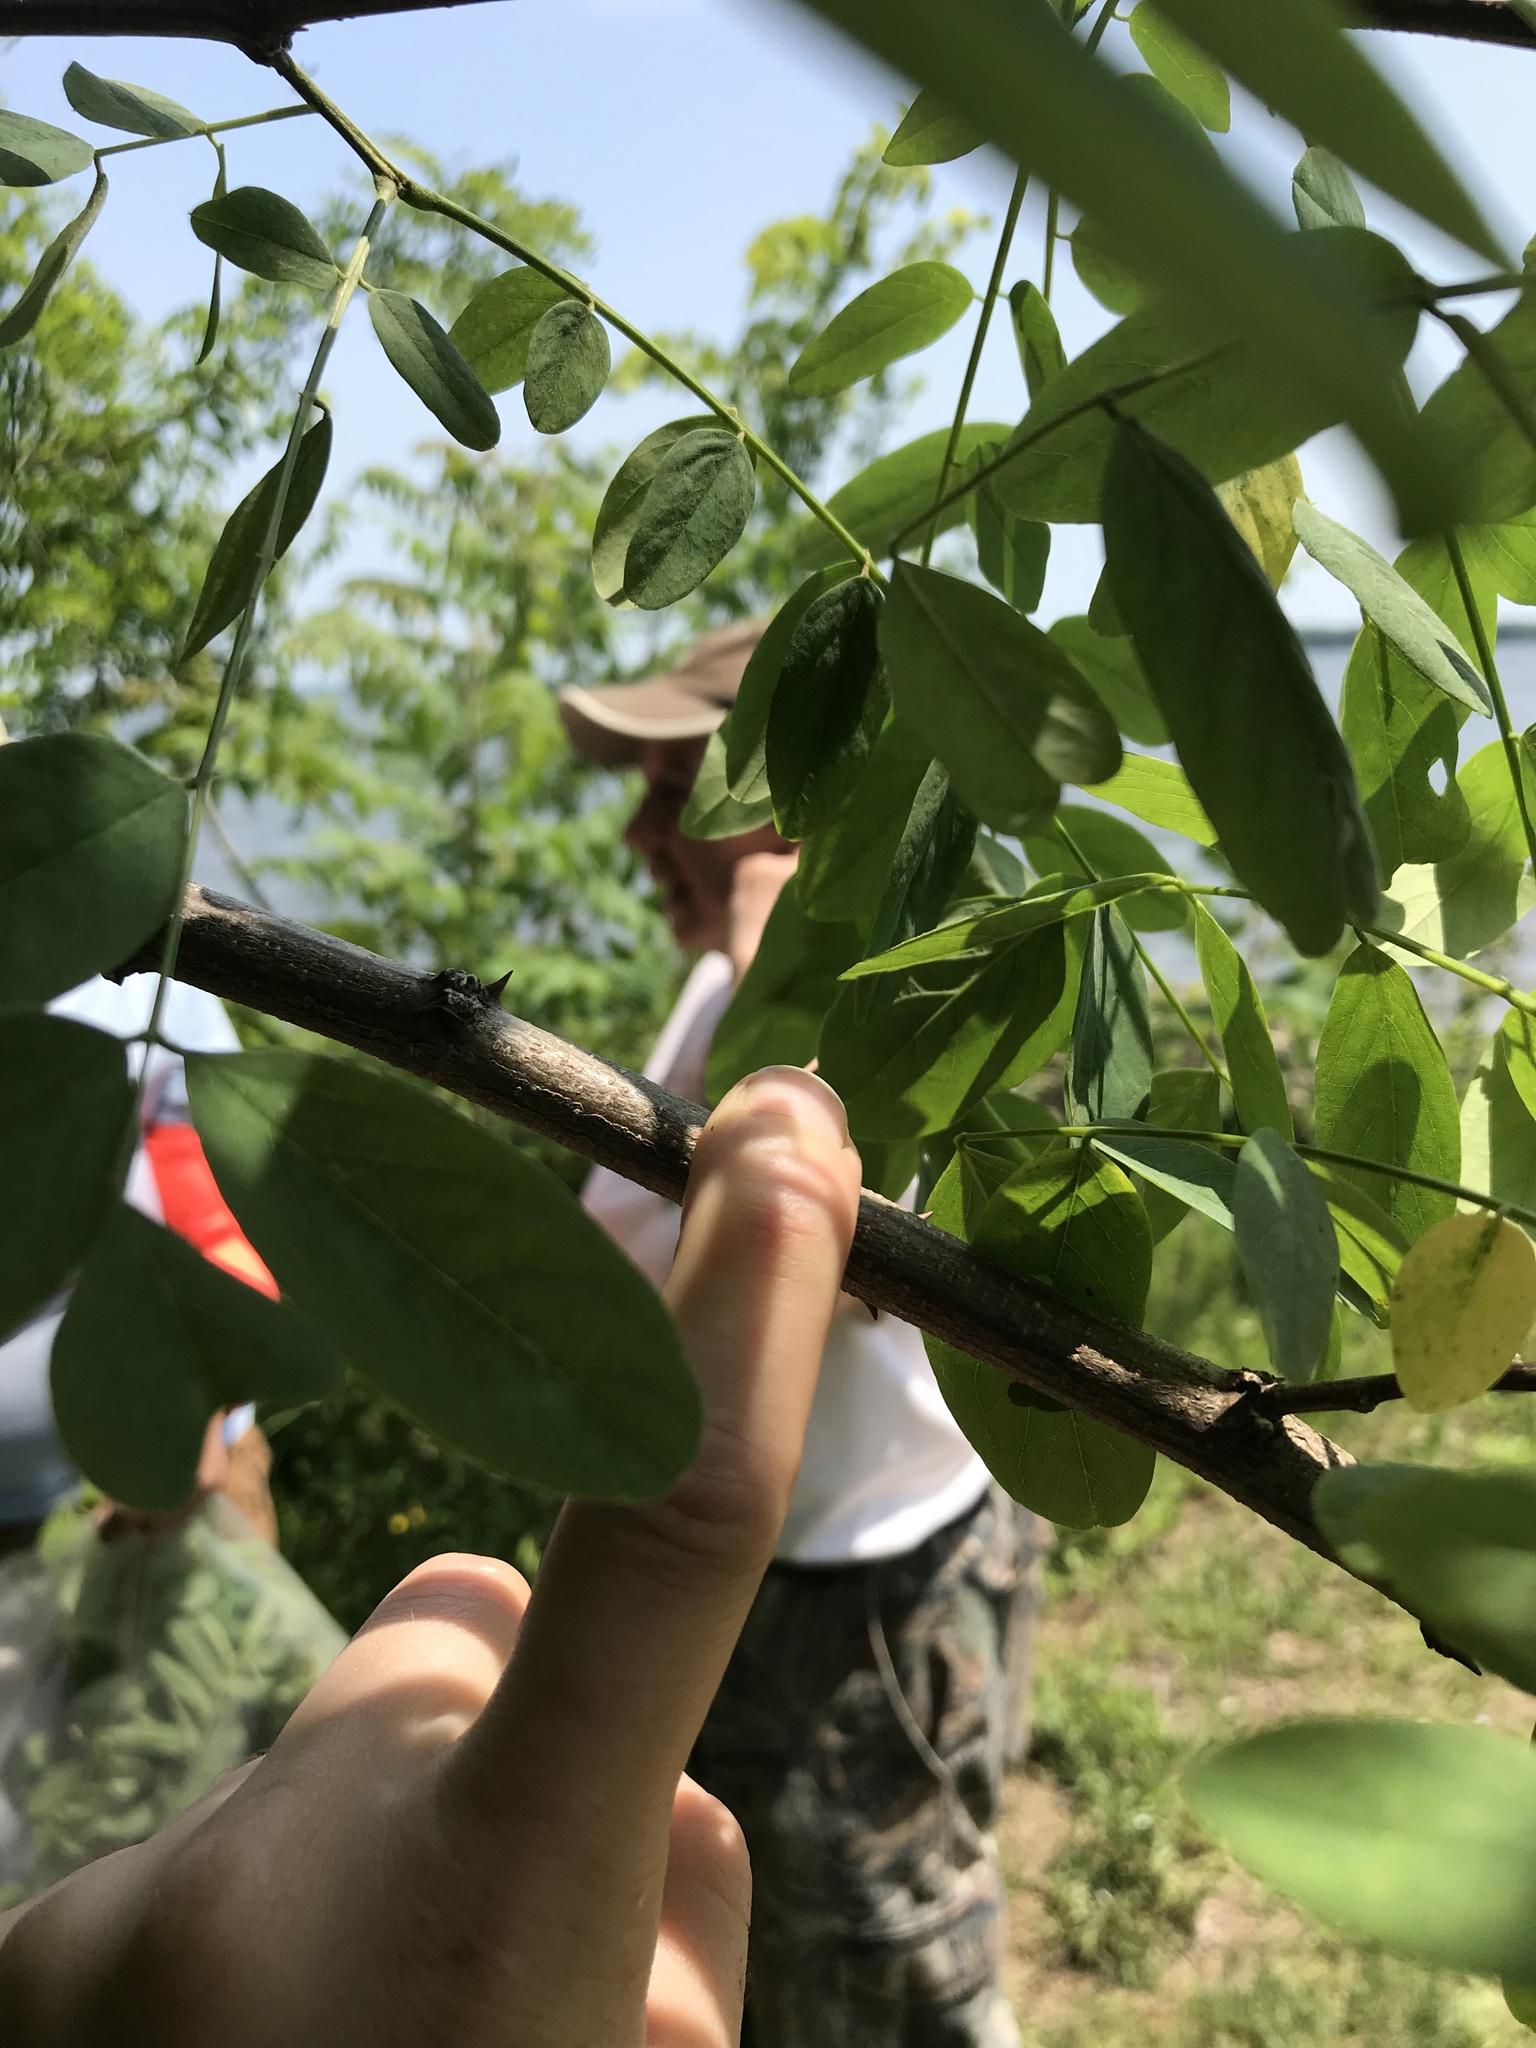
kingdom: Plantae
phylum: Tracheophyta
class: Magnoliopsida
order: Fabales
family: Fabaceae
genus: Robinia
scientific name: Robinia pseudoacacia
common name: Black locust
